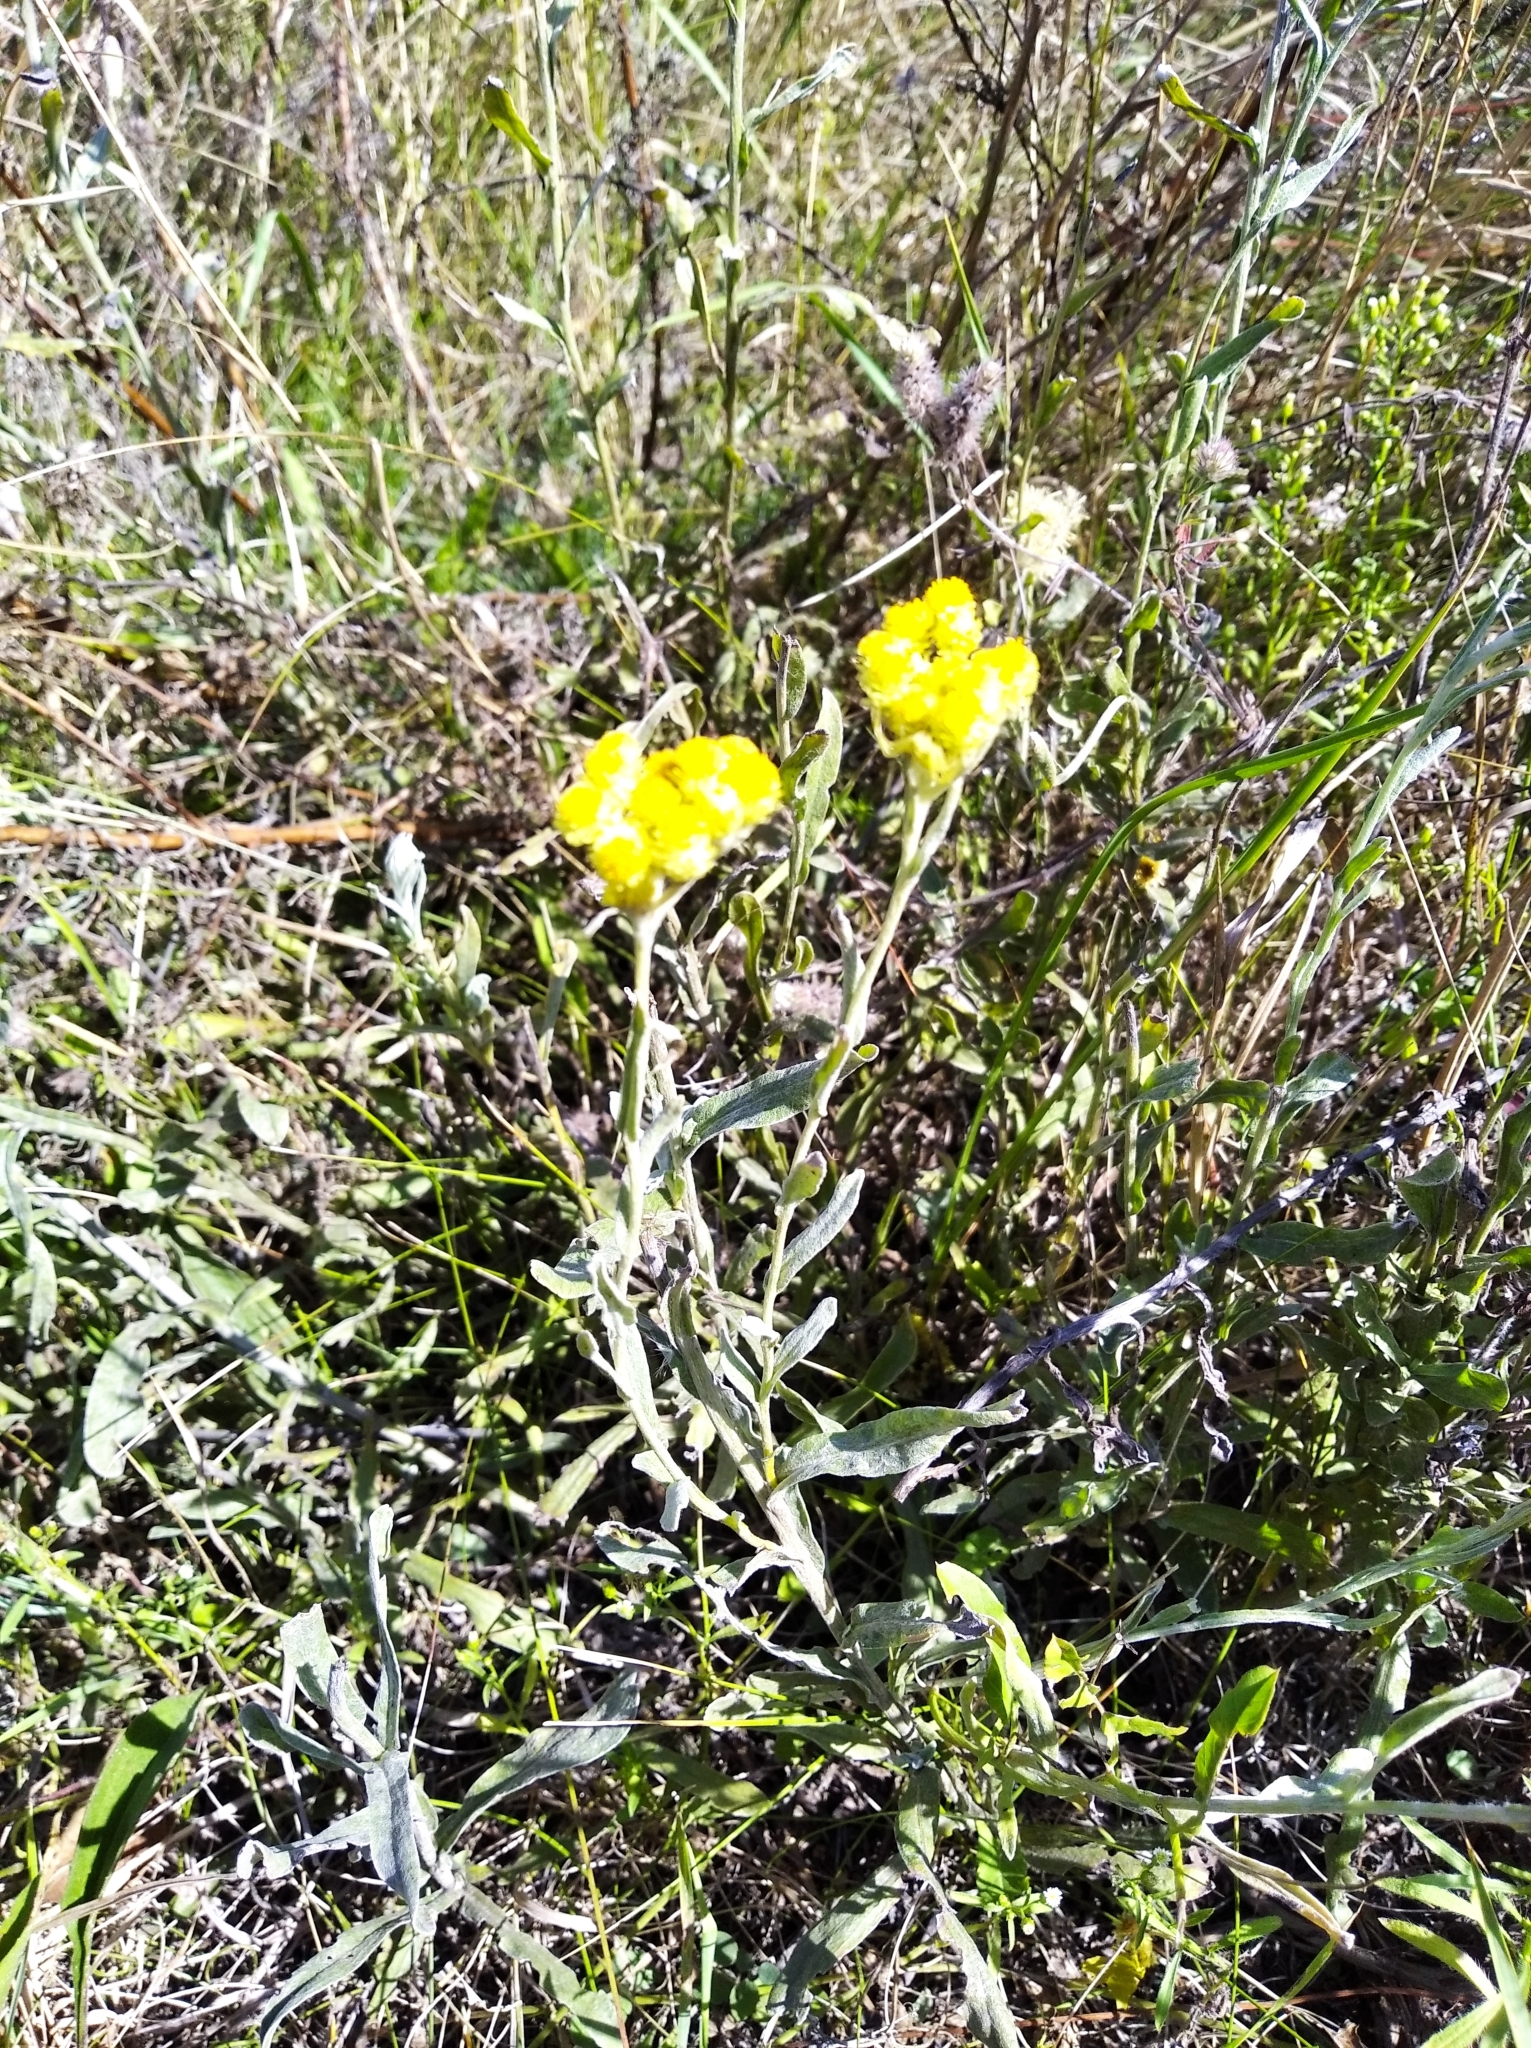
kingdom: Plantae
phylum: Tracheophyta
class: Magnoliopsida
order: Asterales
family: Asteraceae
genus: Helichrysum
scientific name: Helichrysum arenarium
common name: Strawflower
